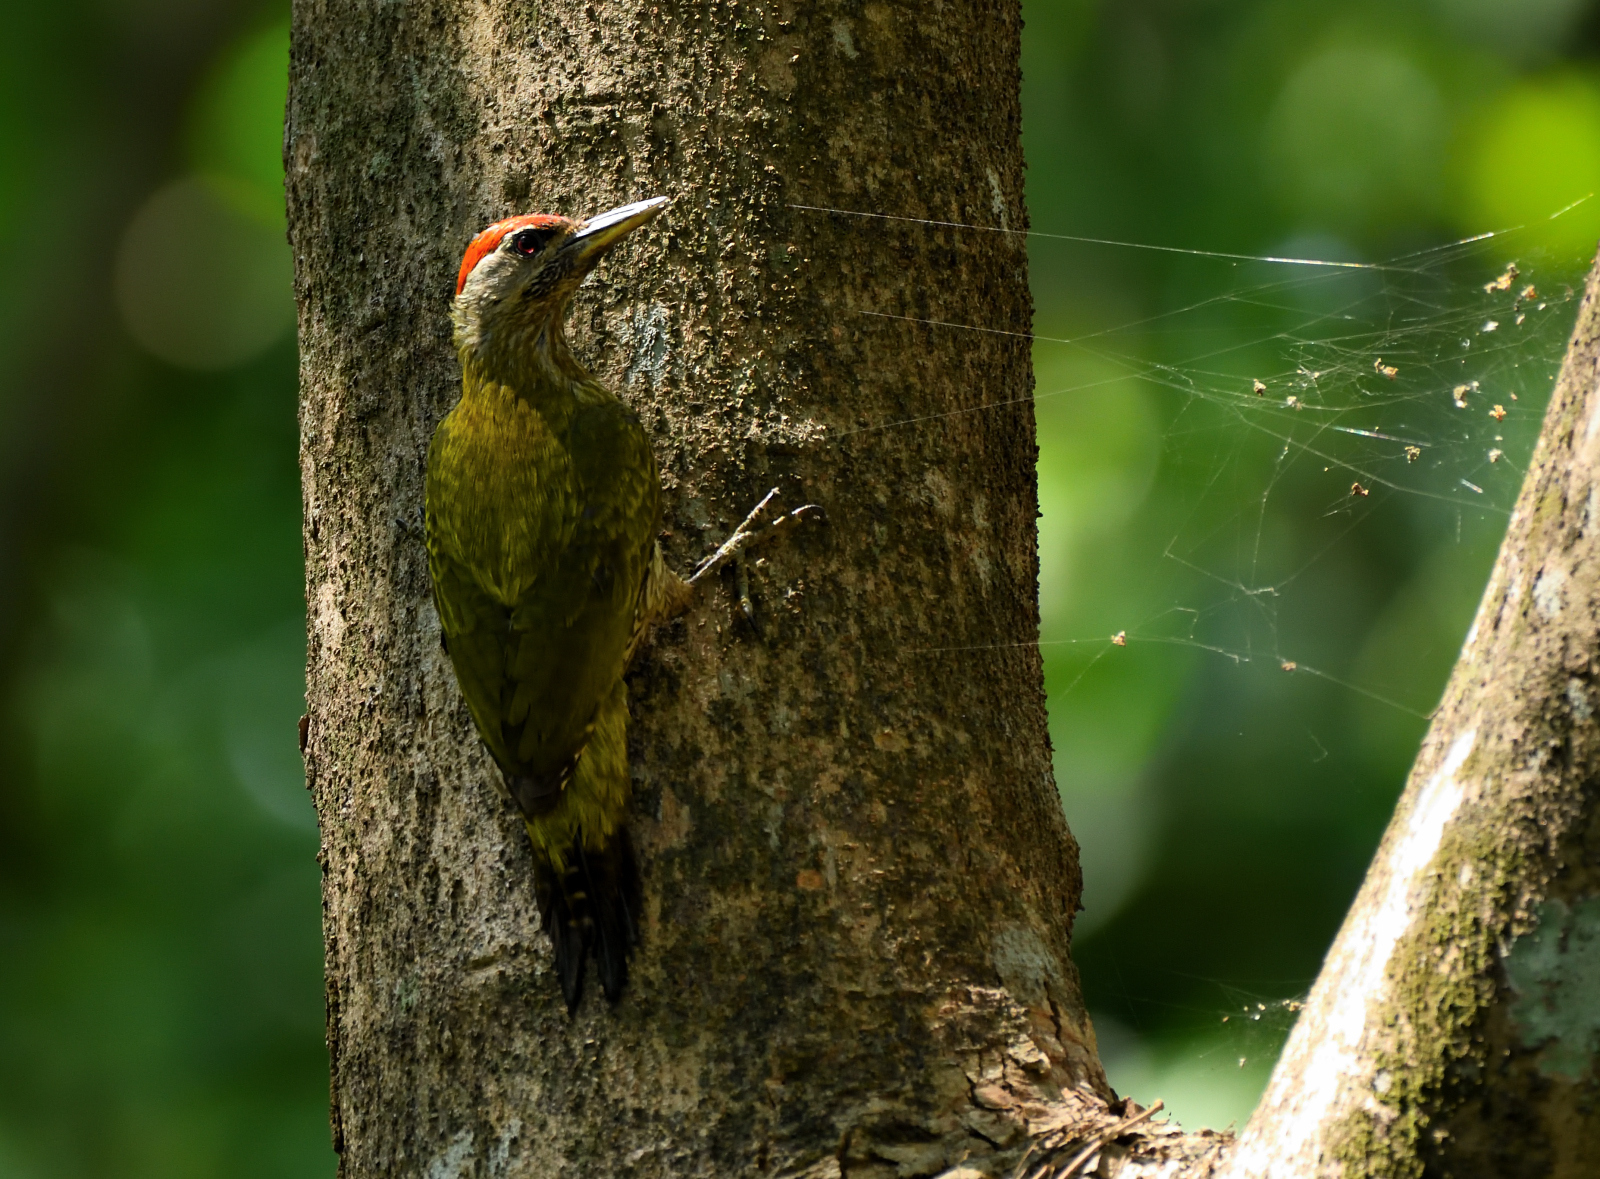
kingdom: Animalia
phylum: Chordata
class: Aves
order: Piciformes
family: Picidae
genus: Picus
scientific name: Picus xanthopygaeus
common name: Streak-throated woodpecker
